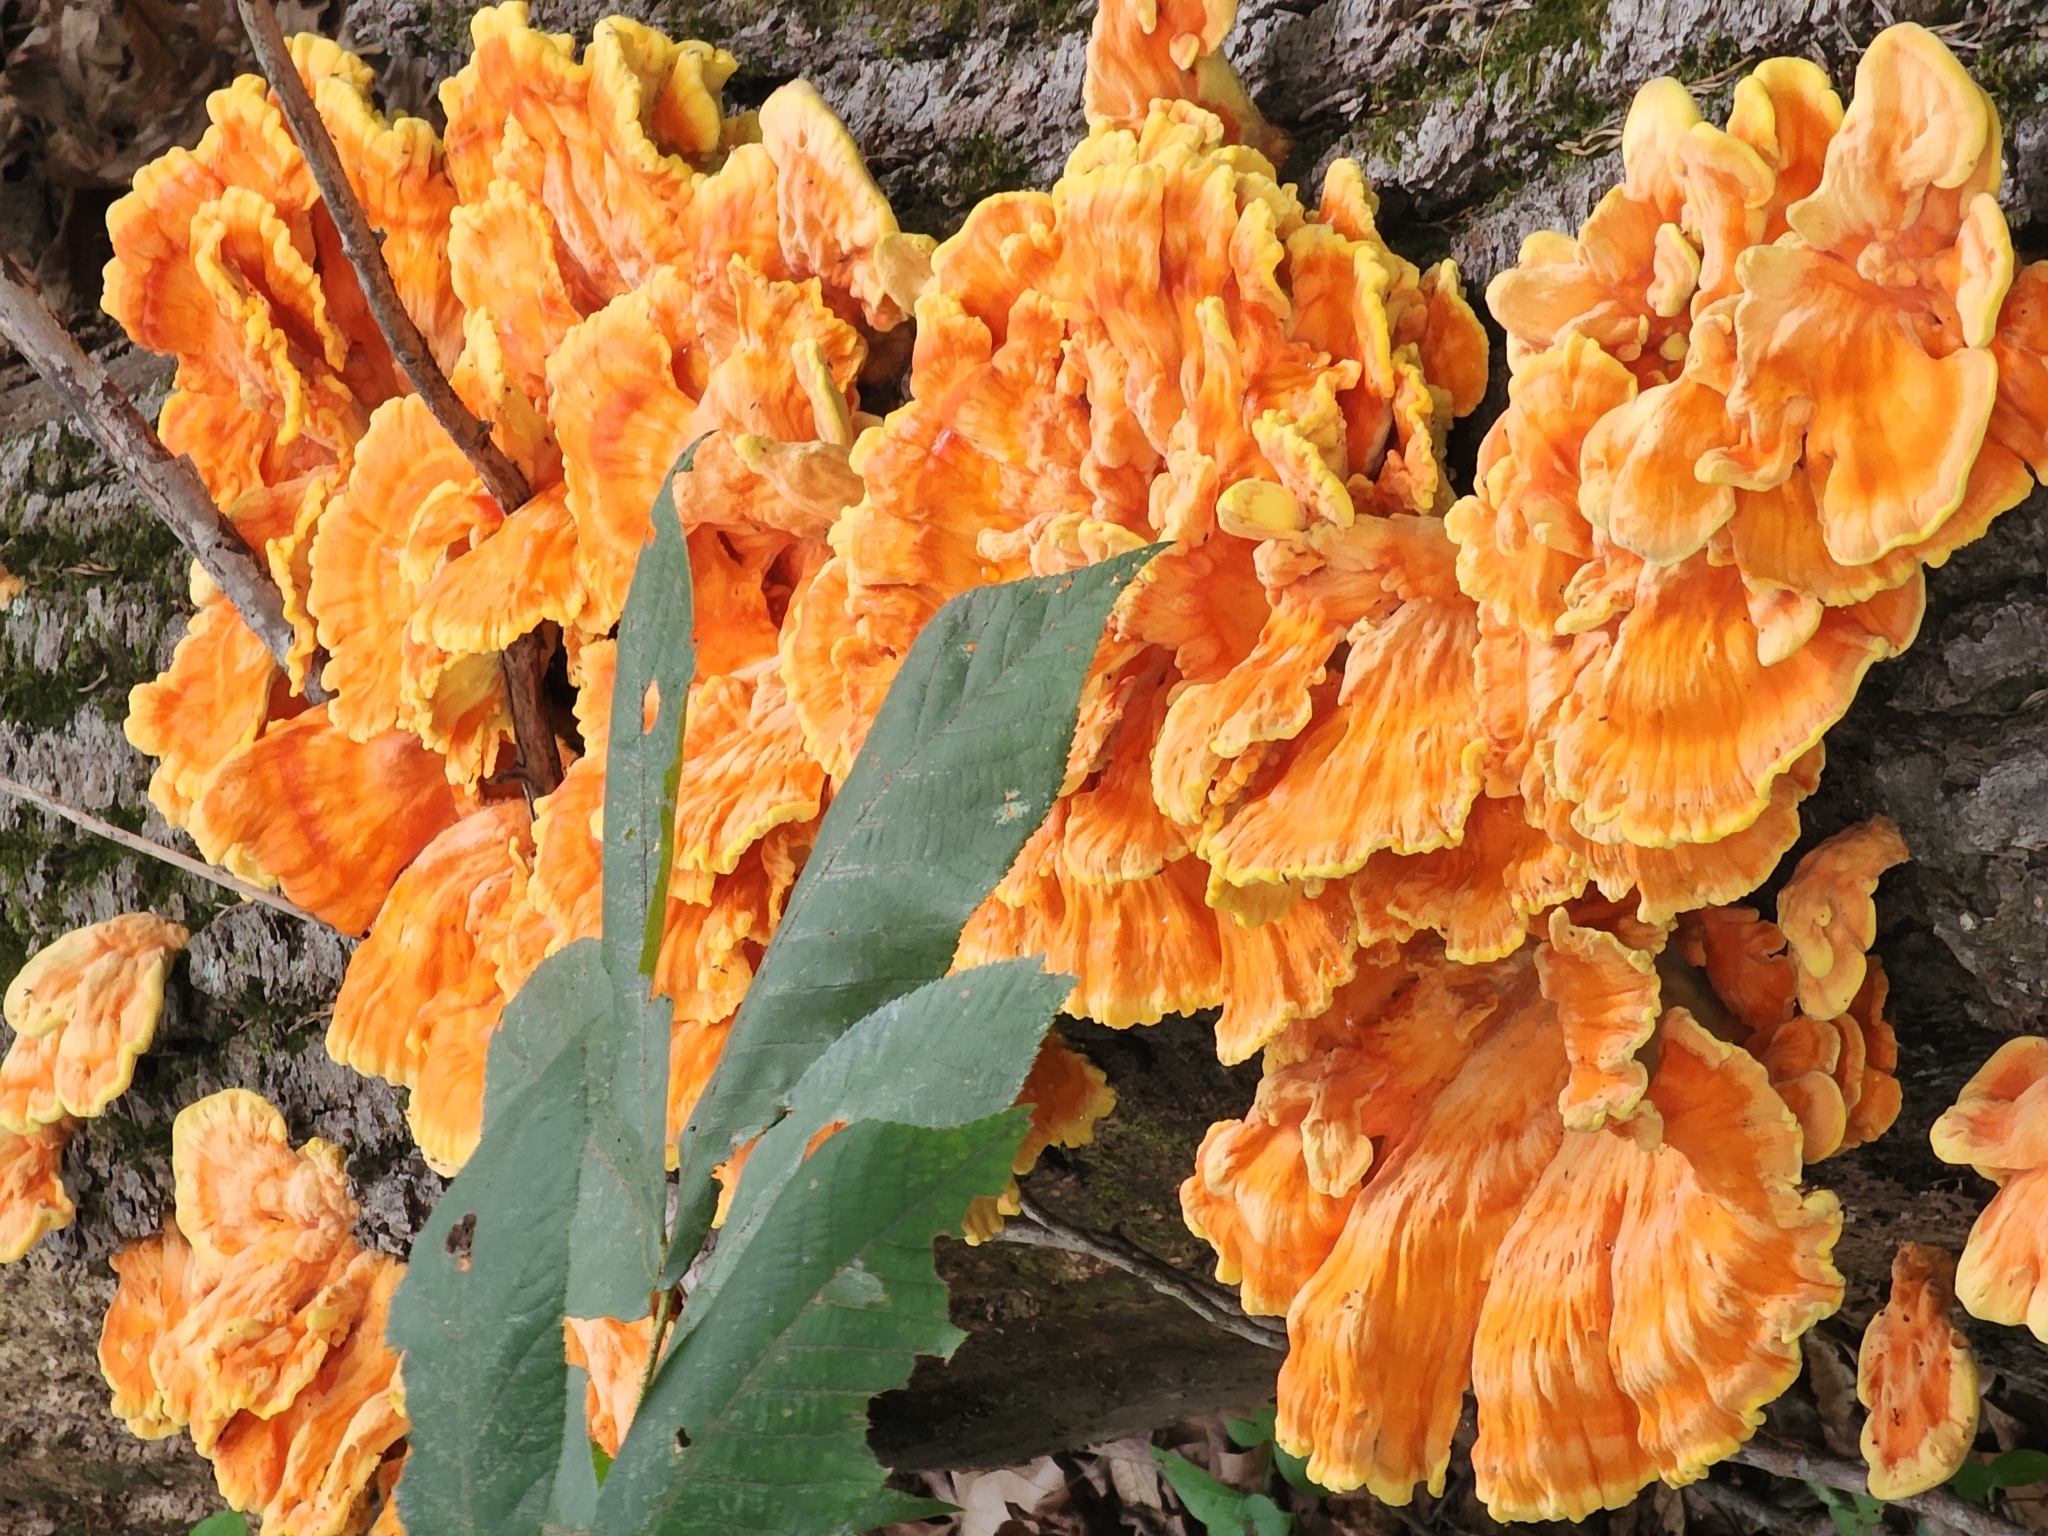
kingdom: Fungi
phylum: Basidiomycota
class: Agaricomycetes
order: Polyporales
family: Laetiporaceae
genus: Laetiporus
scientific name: Laetiporus sulphureus
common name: Chicken of the woods
